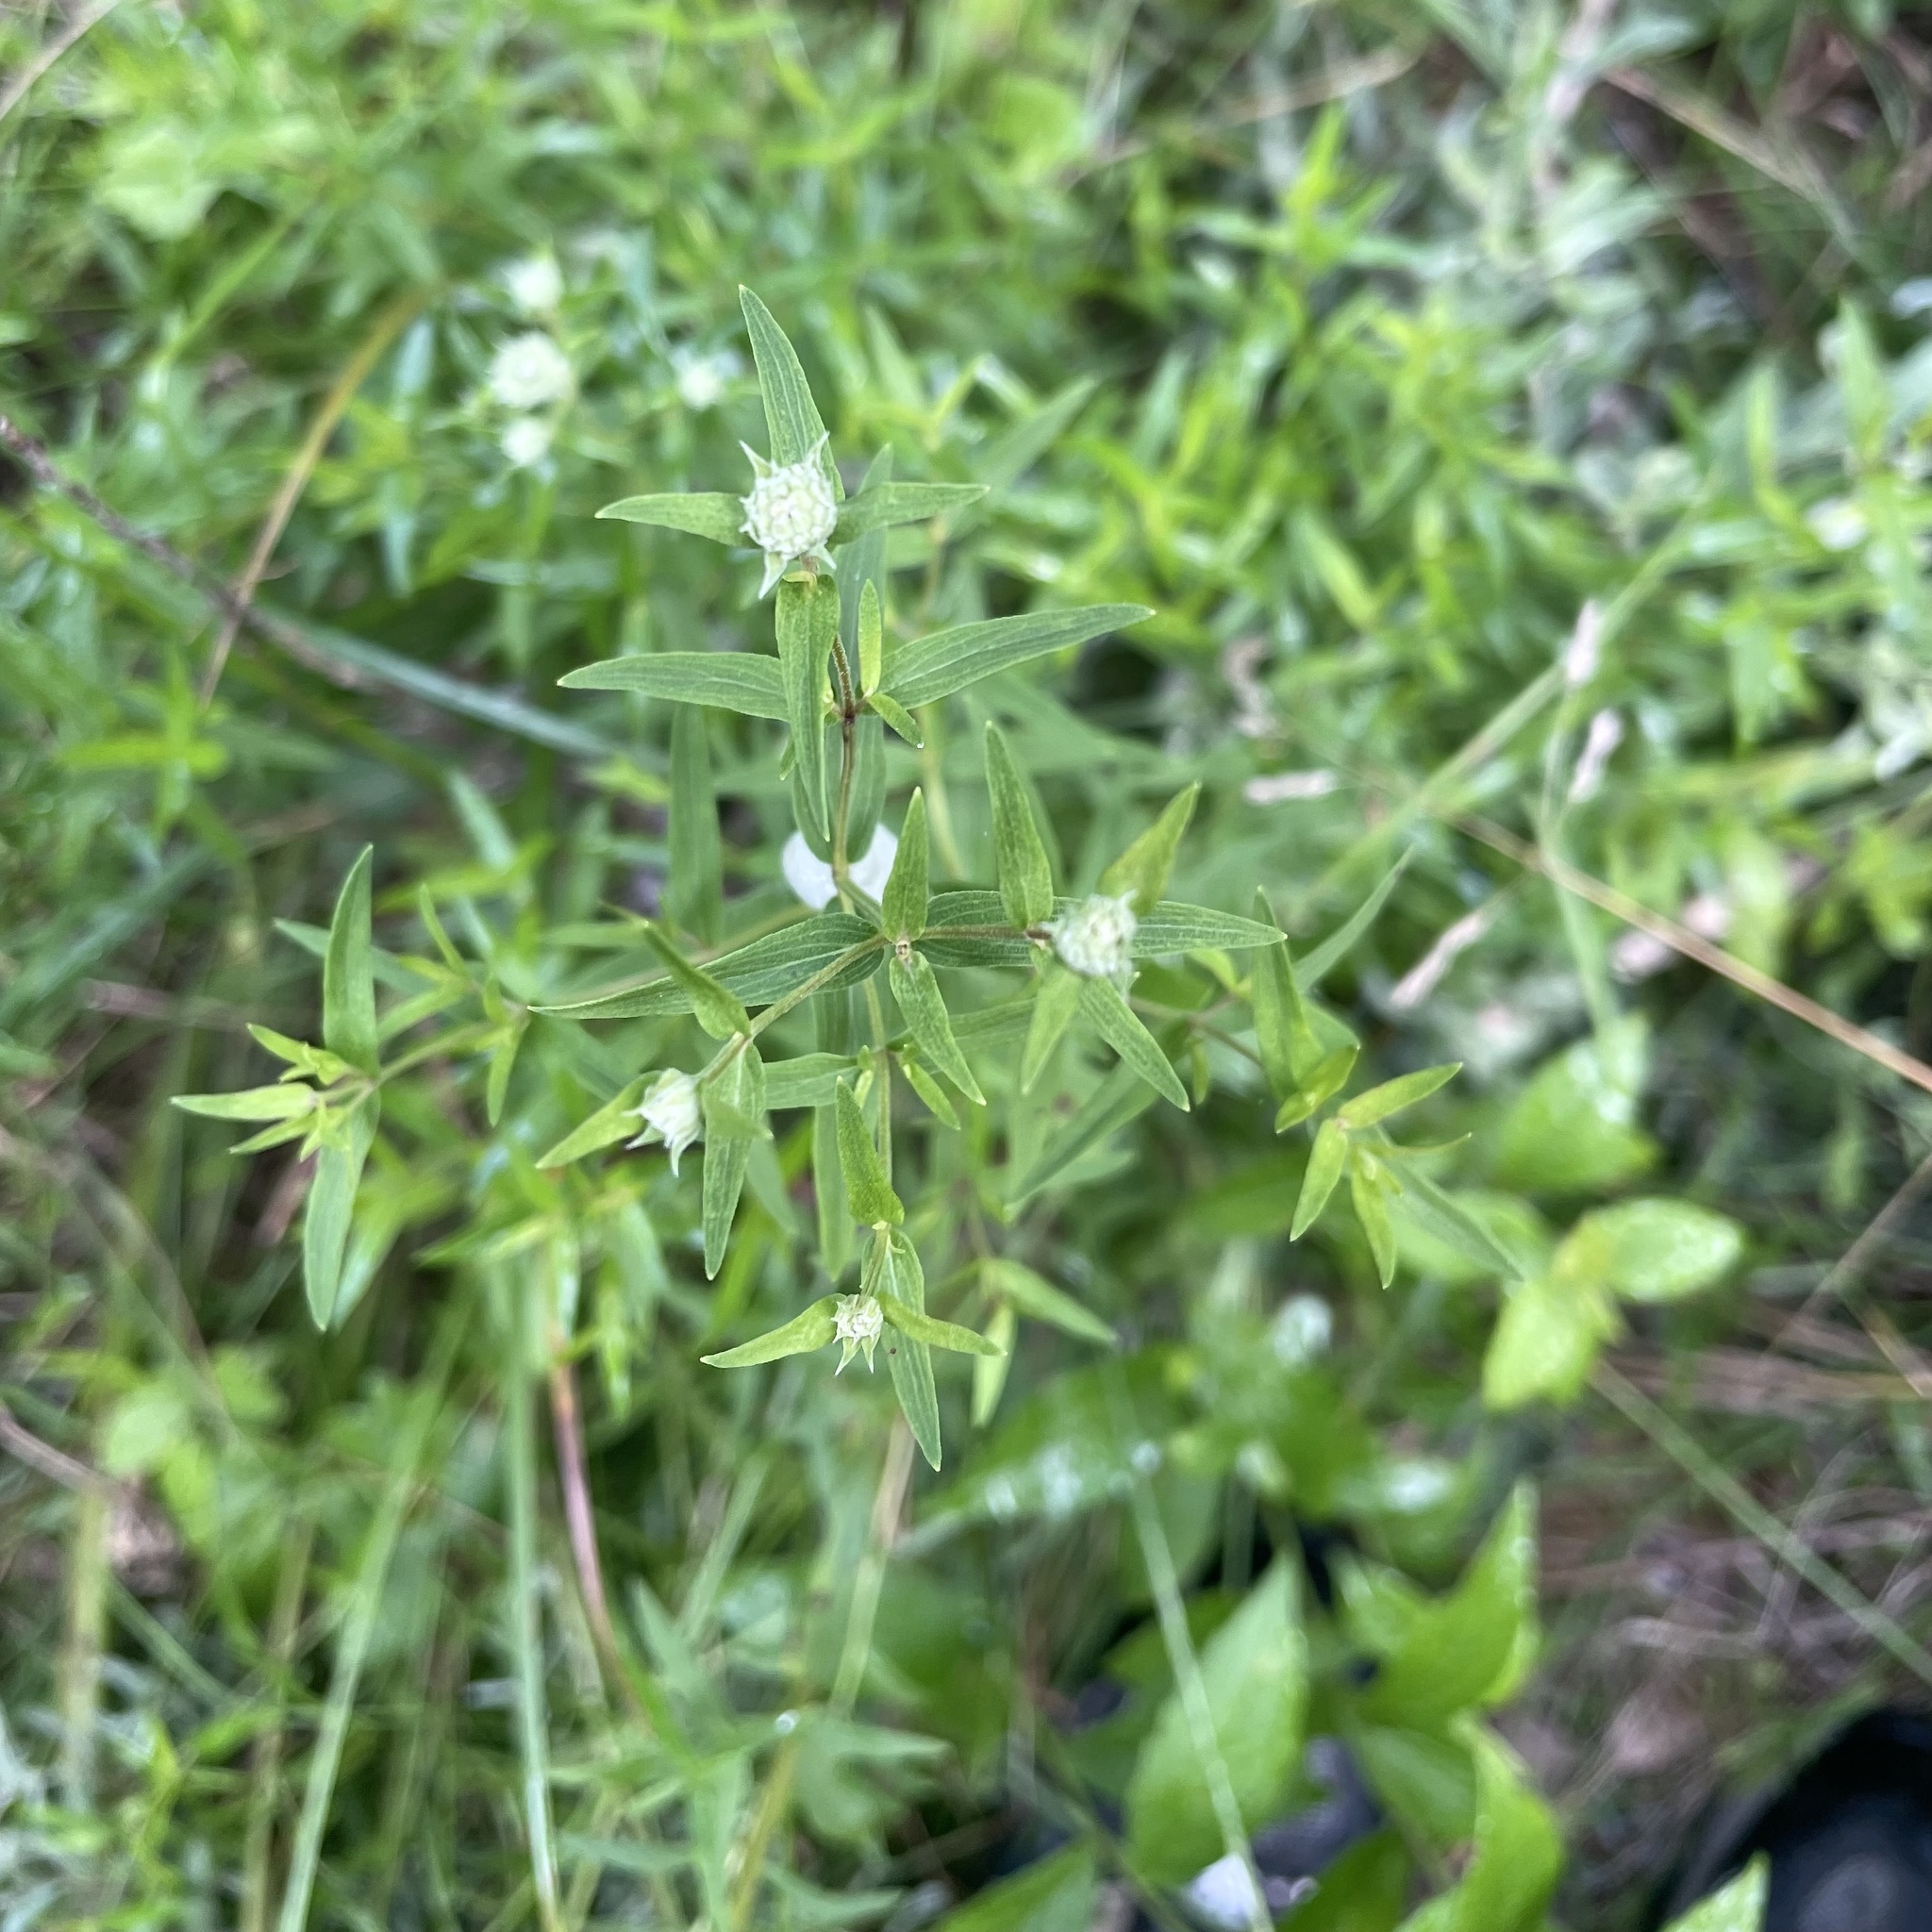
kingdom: Plantae
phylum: Tracheophyta
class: Magnoliopsida
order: Lamiales
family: Lamiaceae
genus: Pycnanthemum
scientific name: Pycnanthemum tenuifolium
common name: Narrow-leaf mountain-mint
